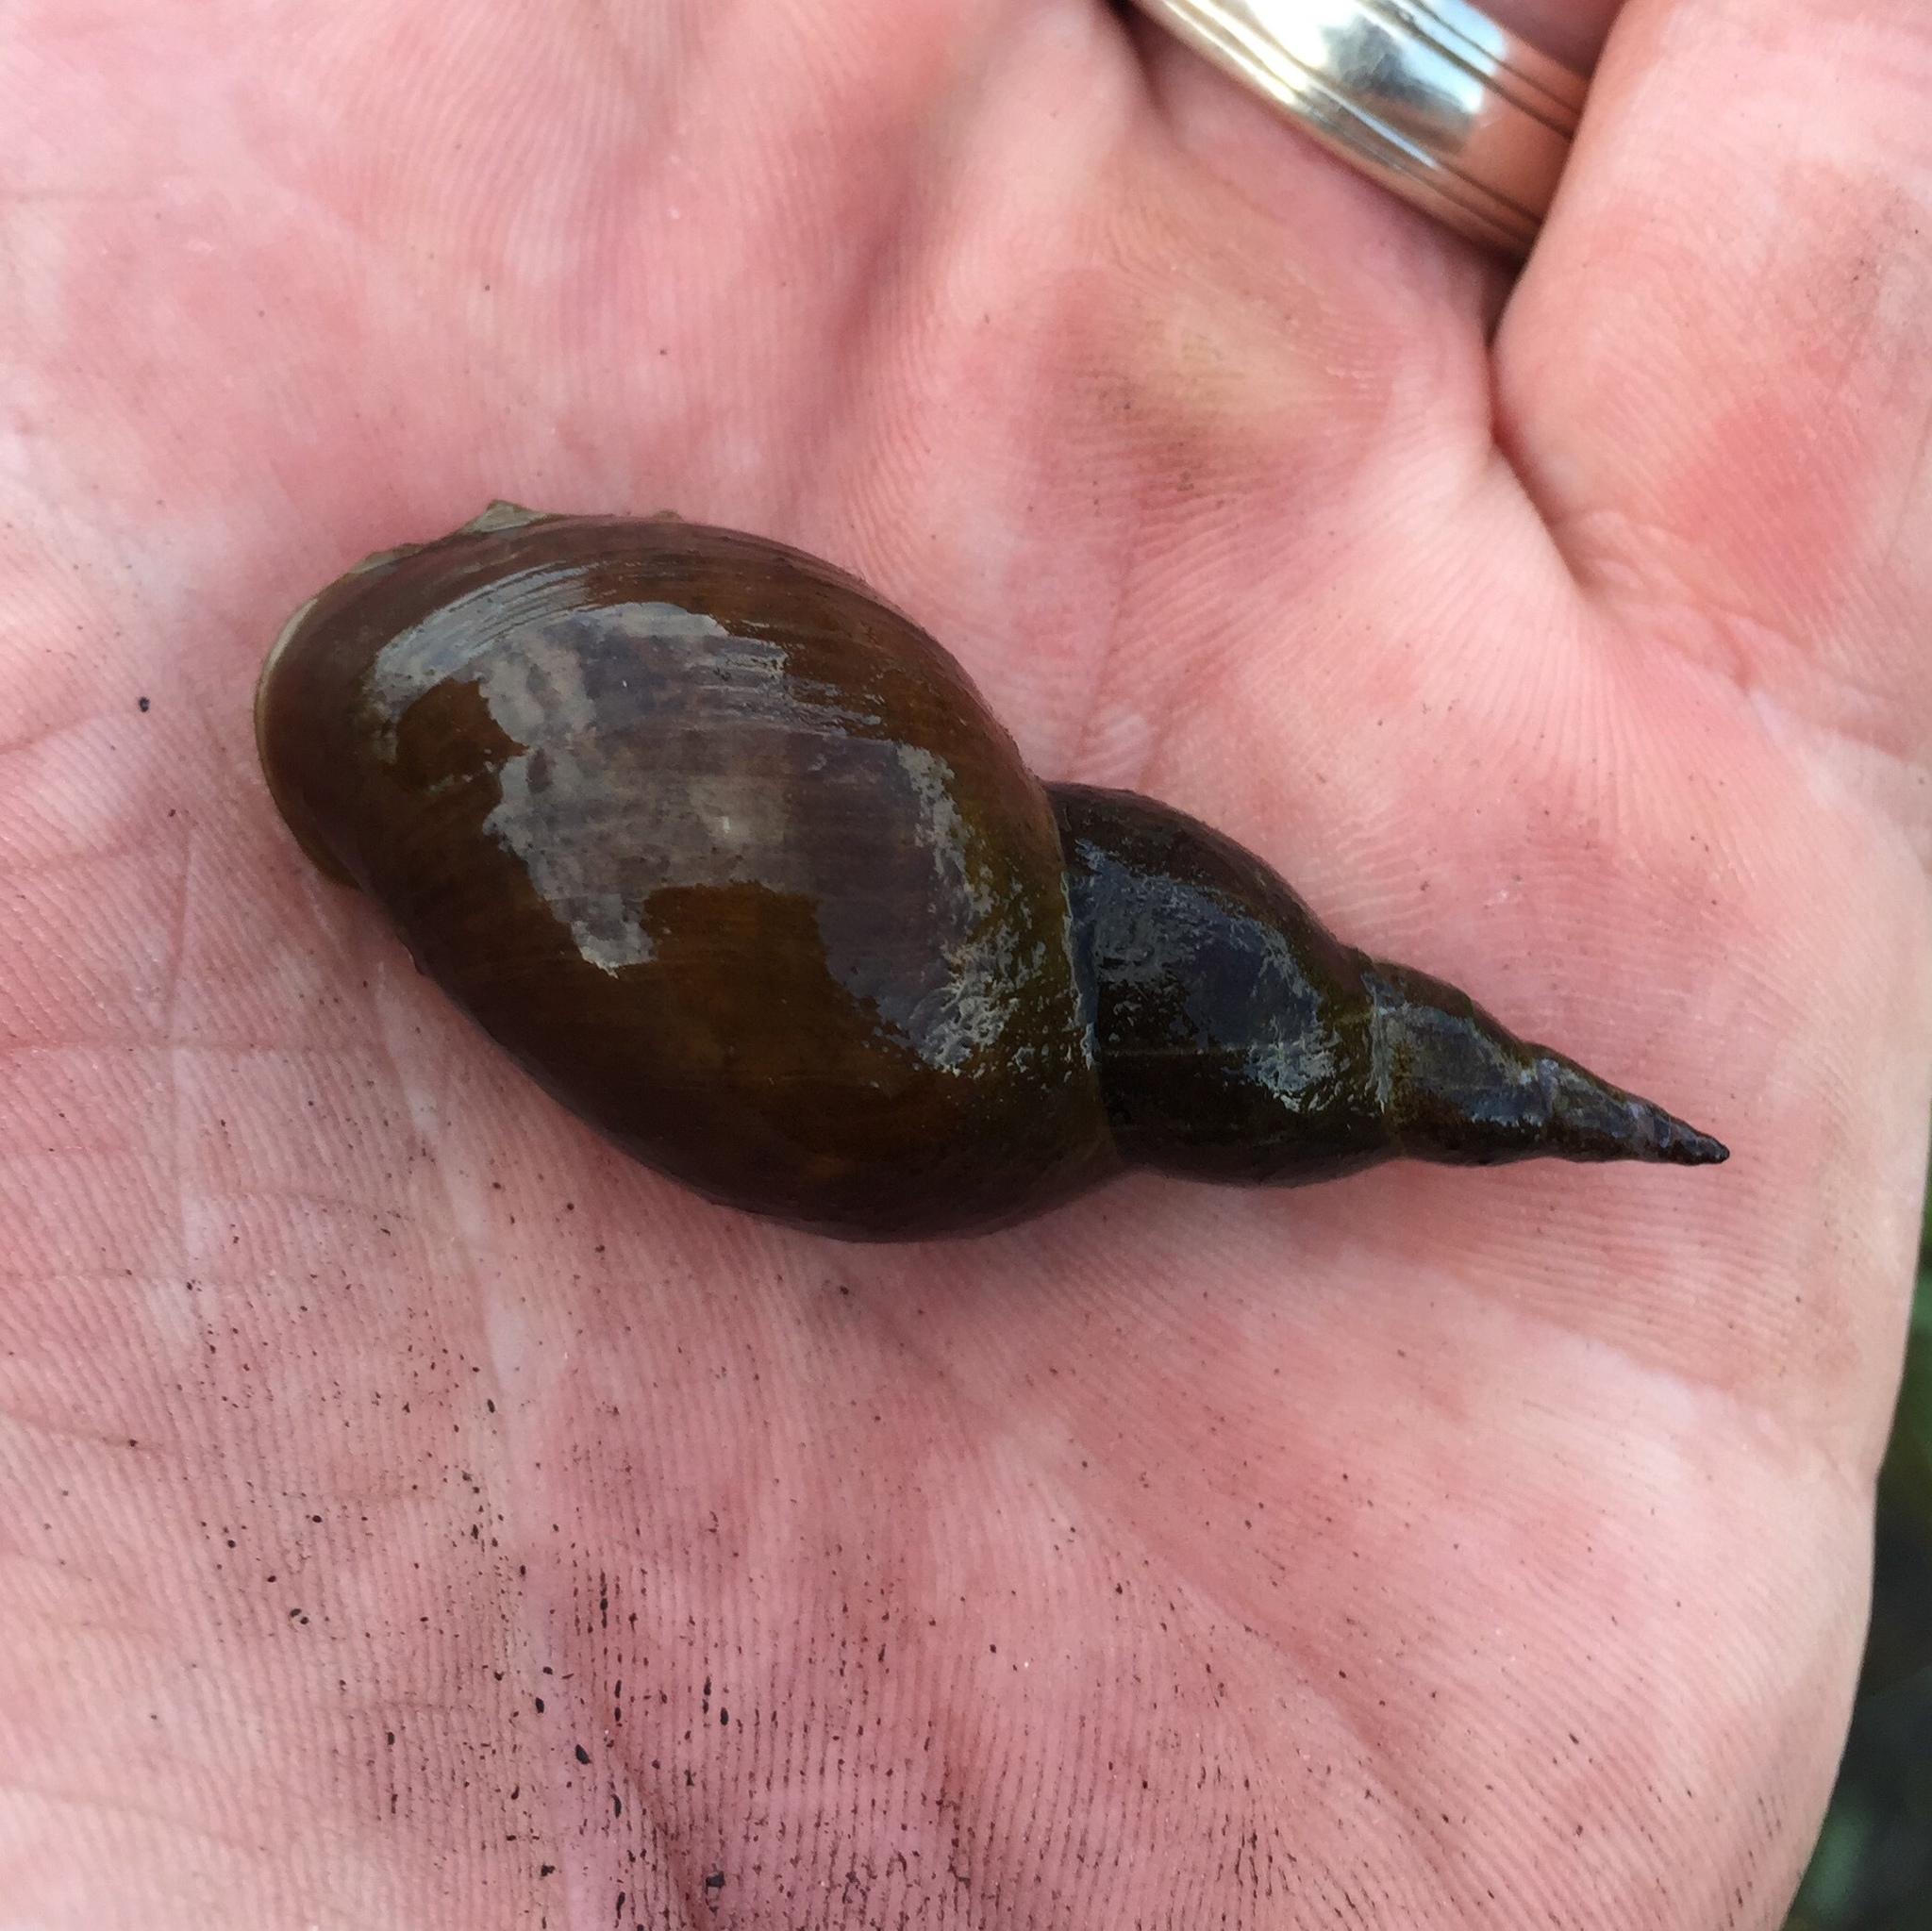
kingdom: Animalia
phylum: Mollusca
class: Gastropoda
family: Lymnaeidae
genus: Lymnaea
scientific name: Lymnaea stagnalis
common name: Great pond snail
